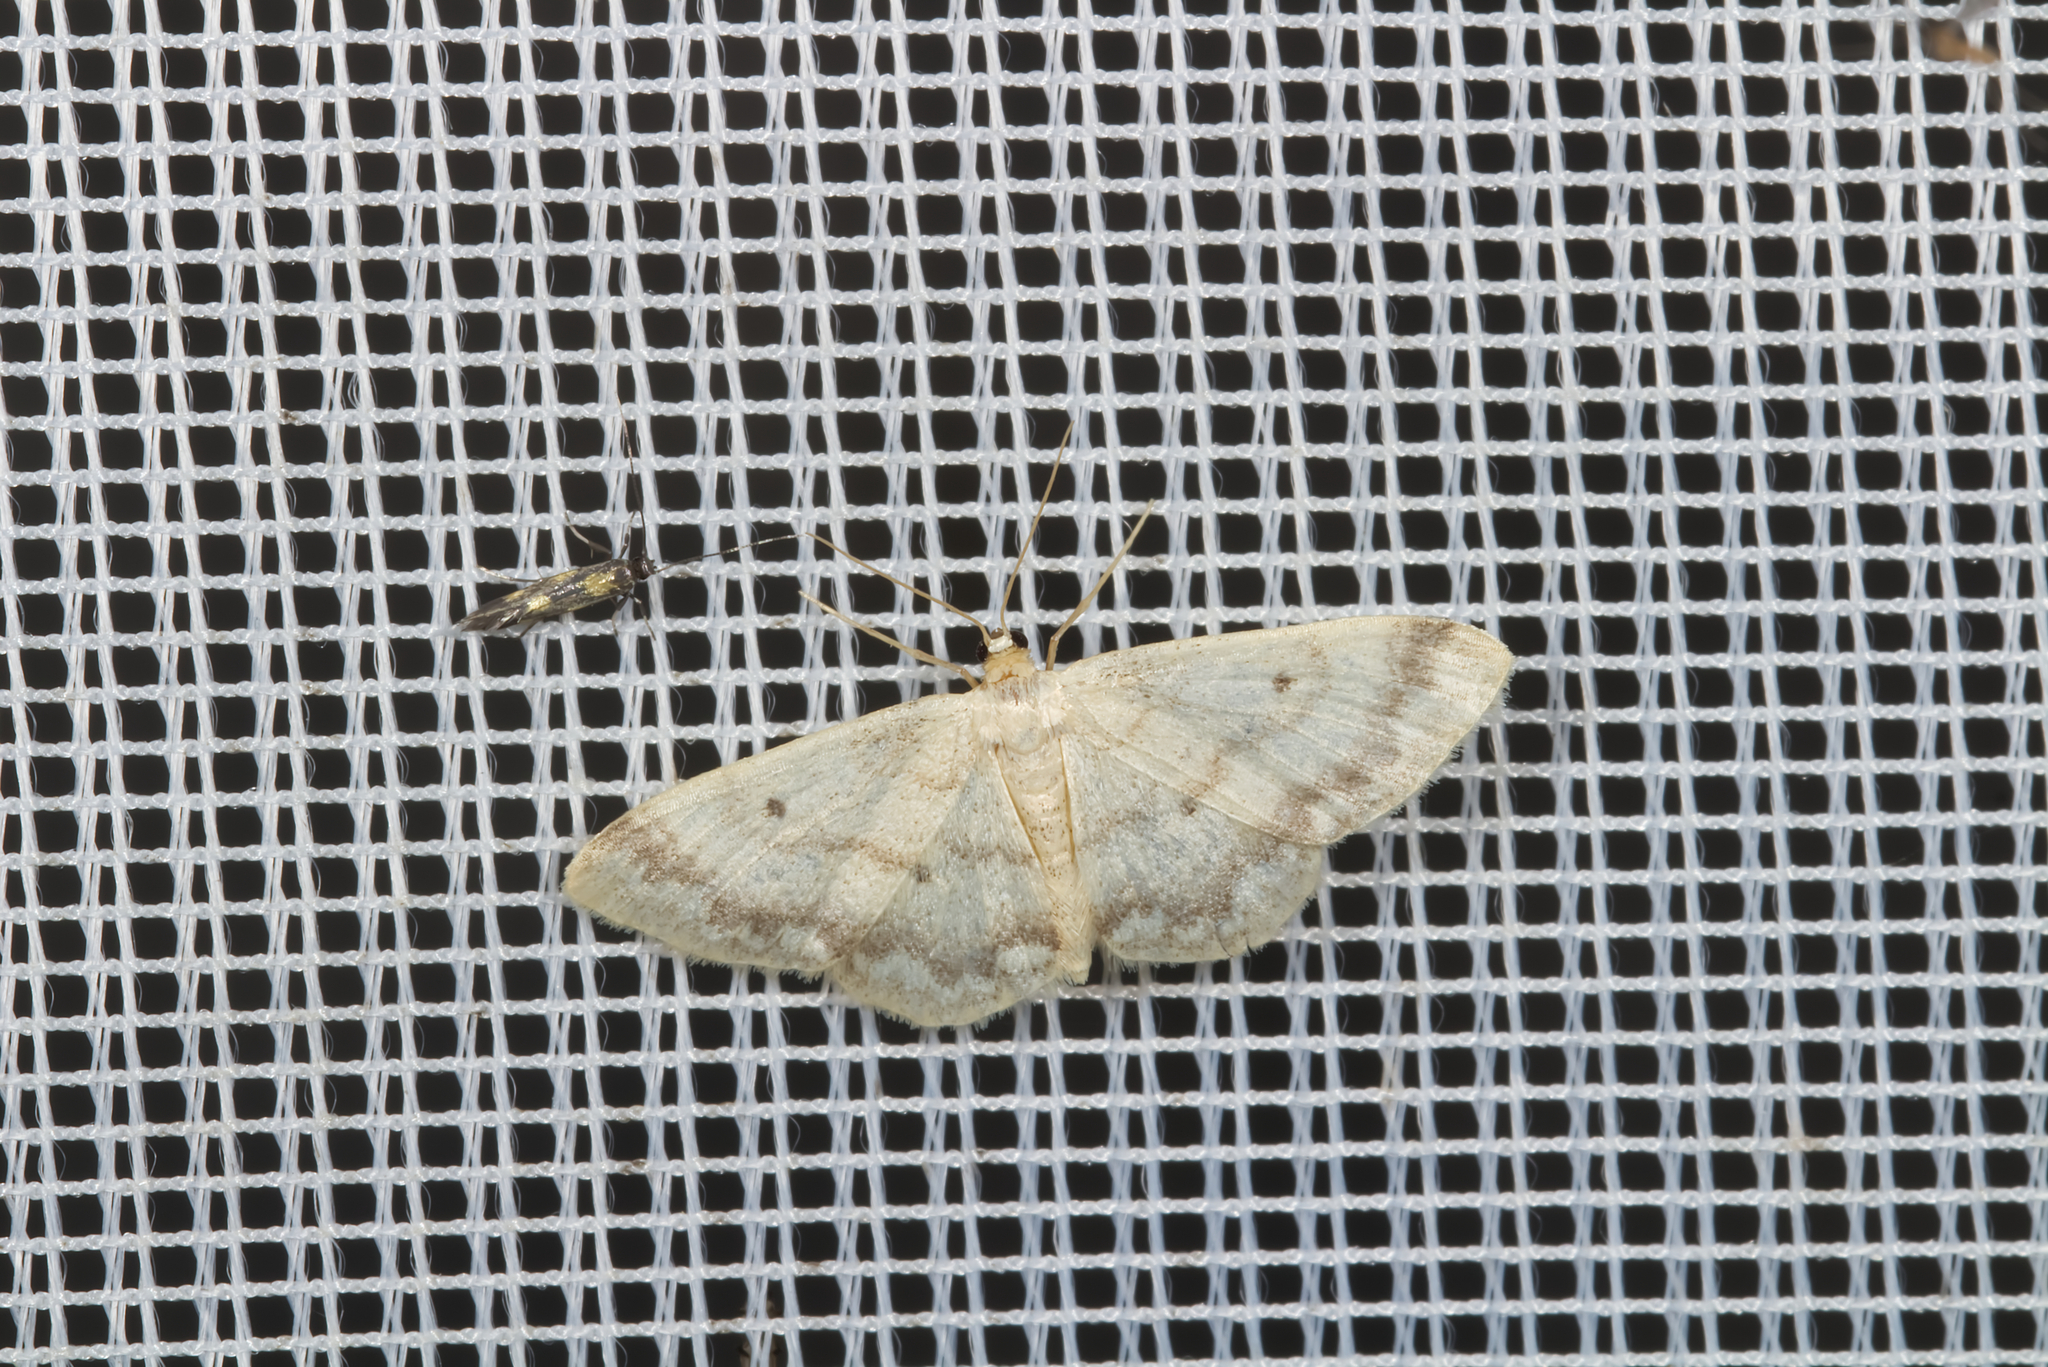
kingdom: Animalia
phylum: Arthropoda
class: Insecta
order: Lepidoptera
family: Geometridae
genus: Idaea
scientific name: Idaea biselata
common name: Small fan-footed wave
